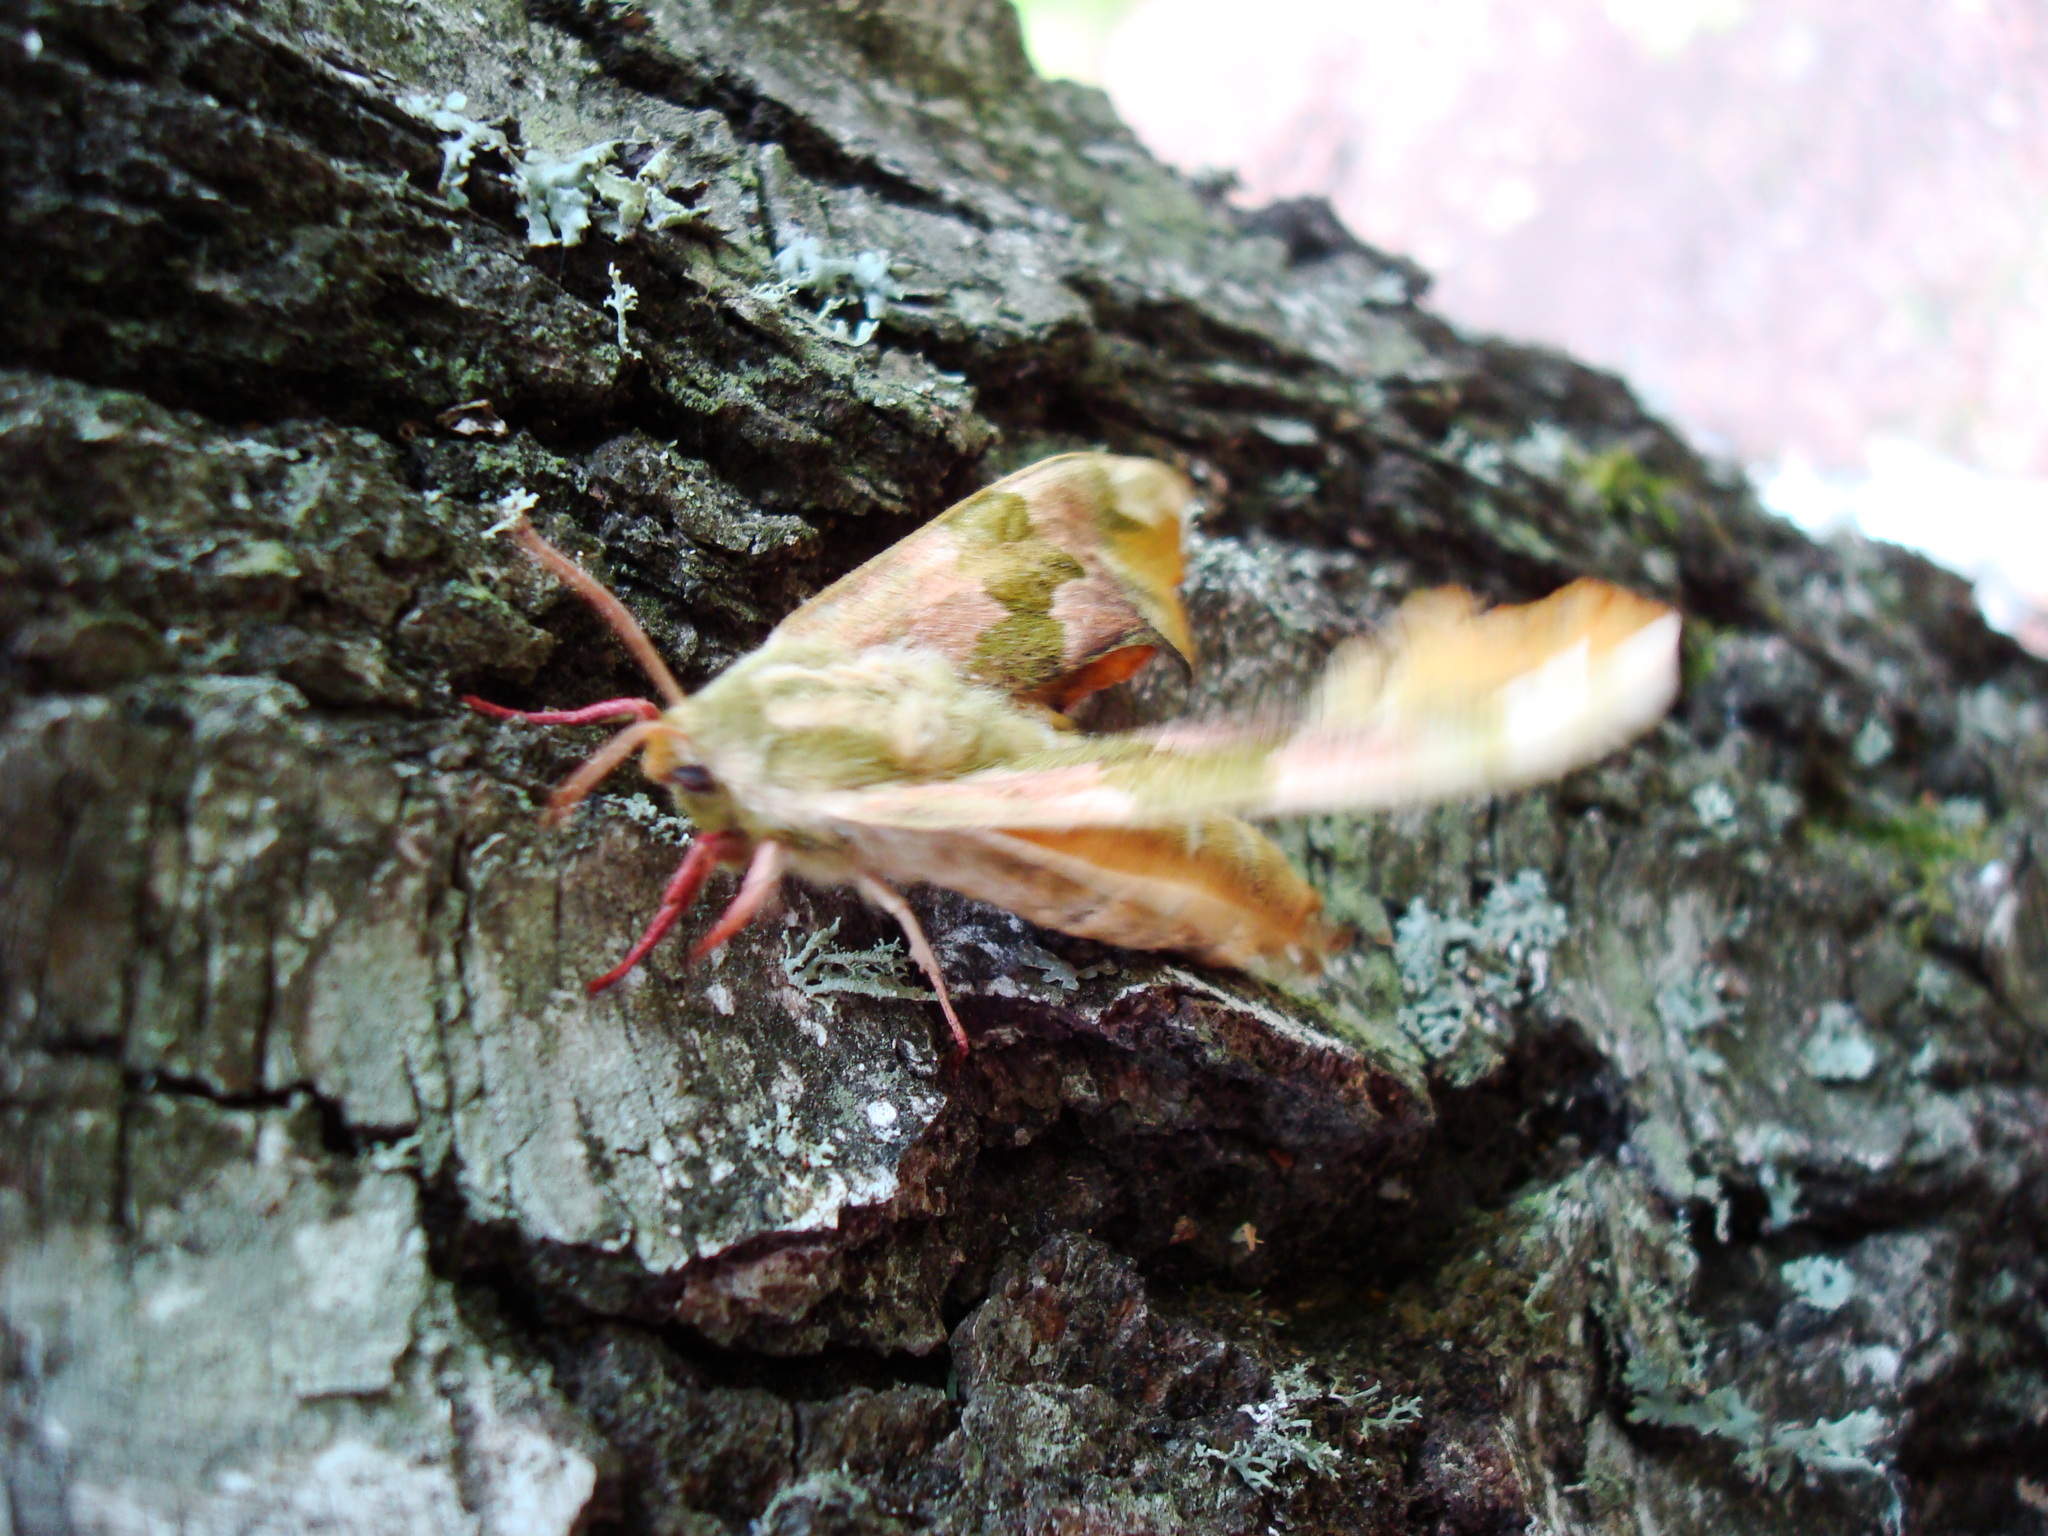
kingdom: Animalia
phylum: Arthropoda
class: Insecta
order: Lepidoptera
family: Sphingidae
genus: Mimas
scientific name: Mimas tiliae
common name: Lime hawk-moth
